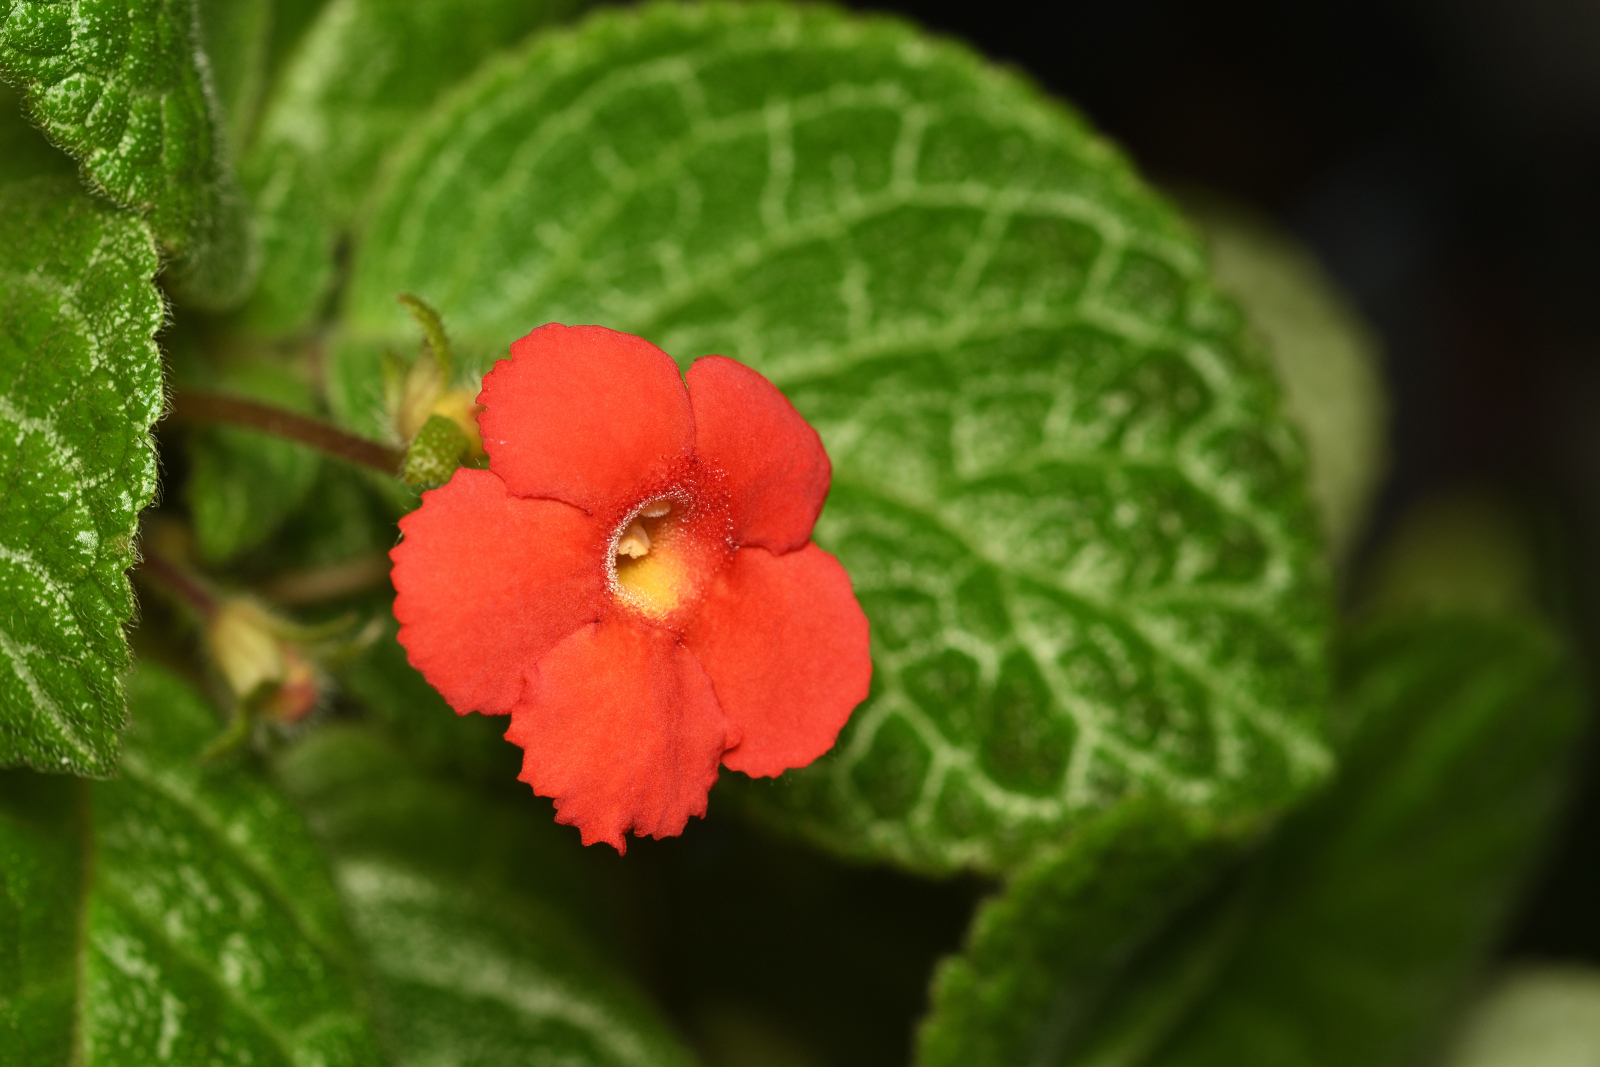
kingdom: Plantae
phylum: Tracheophyta
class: Magnoliopsida
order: Lamiales
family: Gesneriaceae
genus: Episcia
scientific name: Episcia cupreata
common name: Flame-violet
